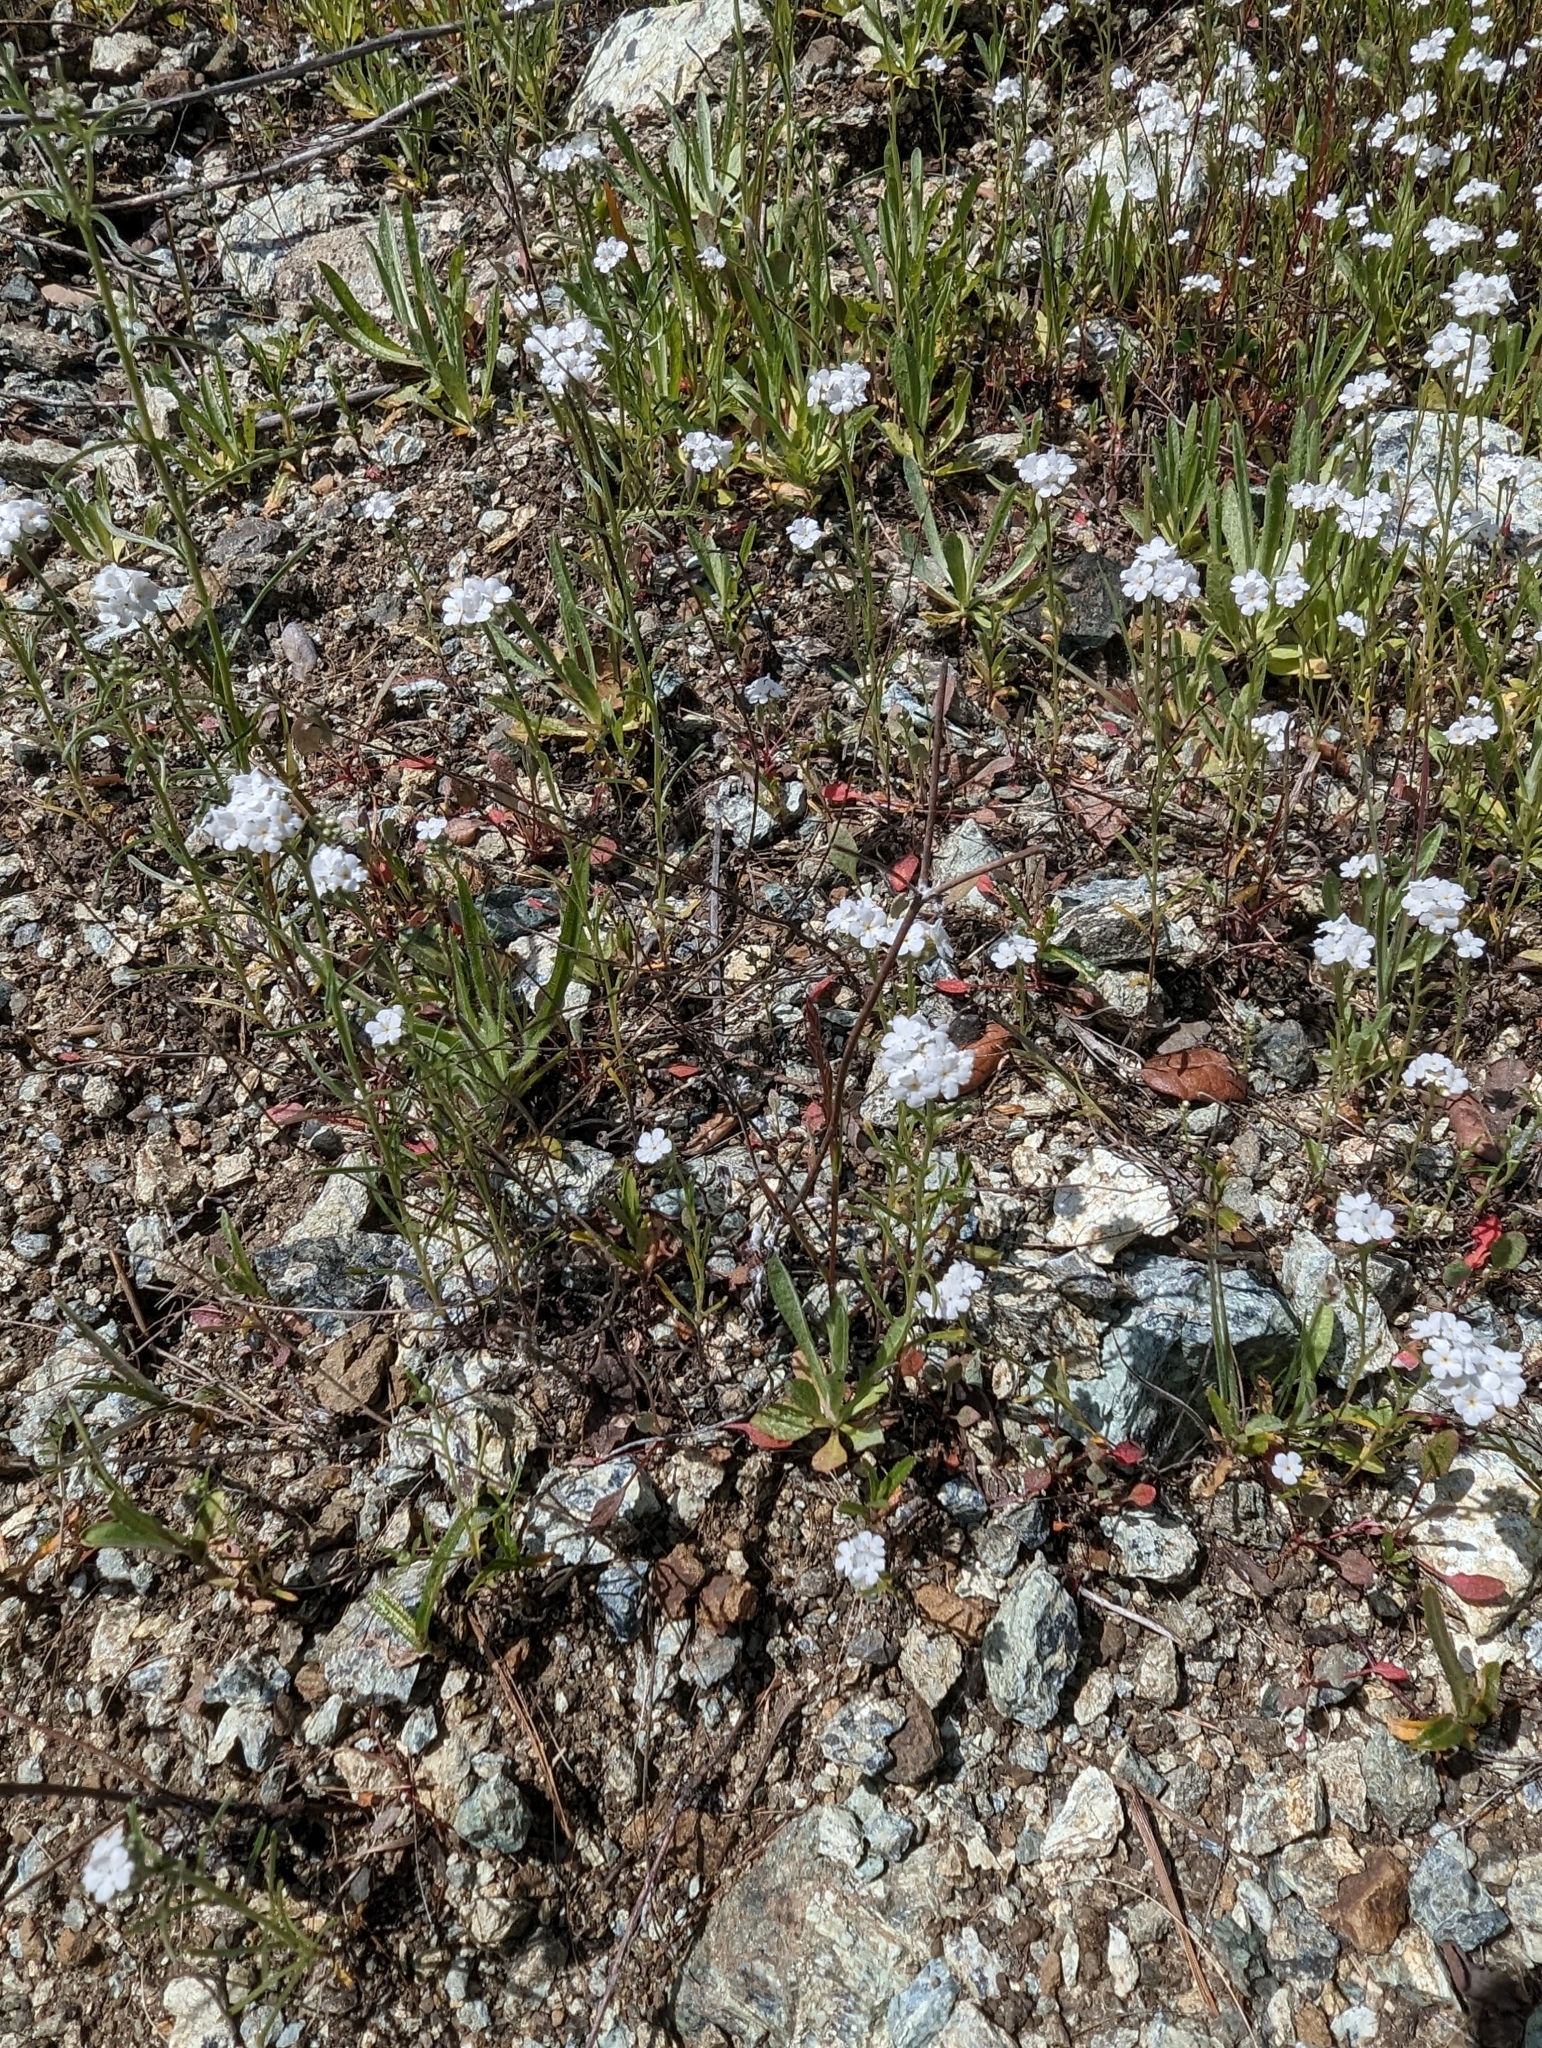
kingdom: Plantae
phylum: Tracheophyta
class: Magnoliopsida
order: Boraginales
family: Boraginaceae
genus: Cryptantha
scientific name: Cryptantha flaccida
